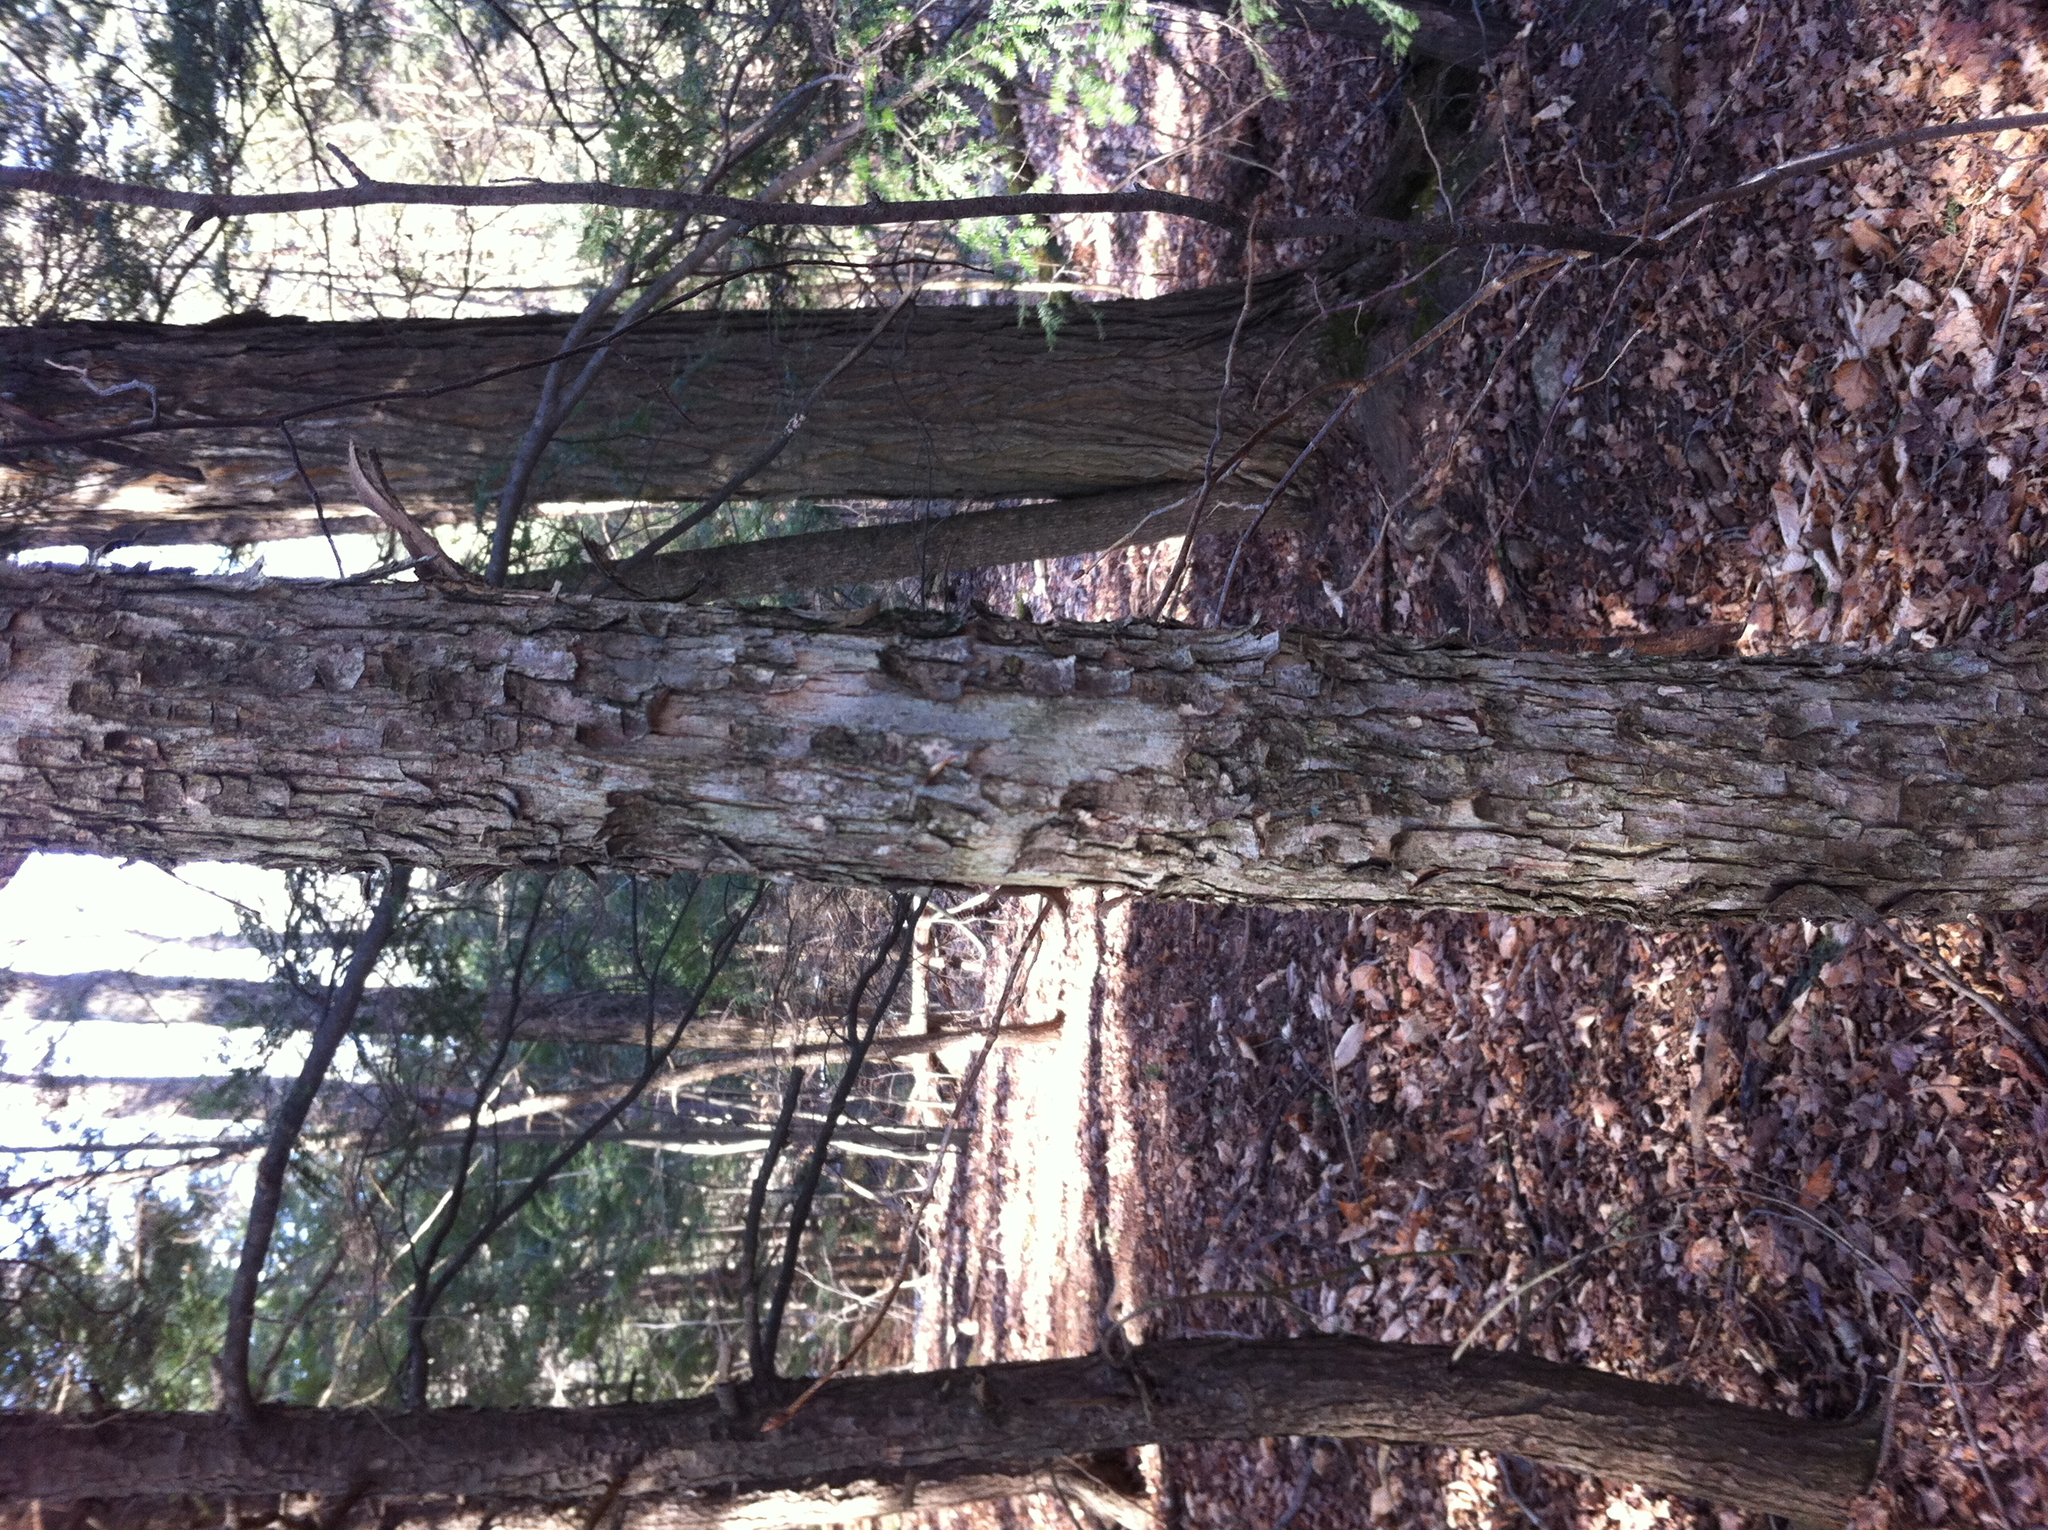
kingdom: Plantae
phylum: Tracheophyta
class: Magnoliopsida
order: Fagales
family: Betulaceae
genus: Ostrya
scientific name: Ostrya virginiana
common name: Ironwood
